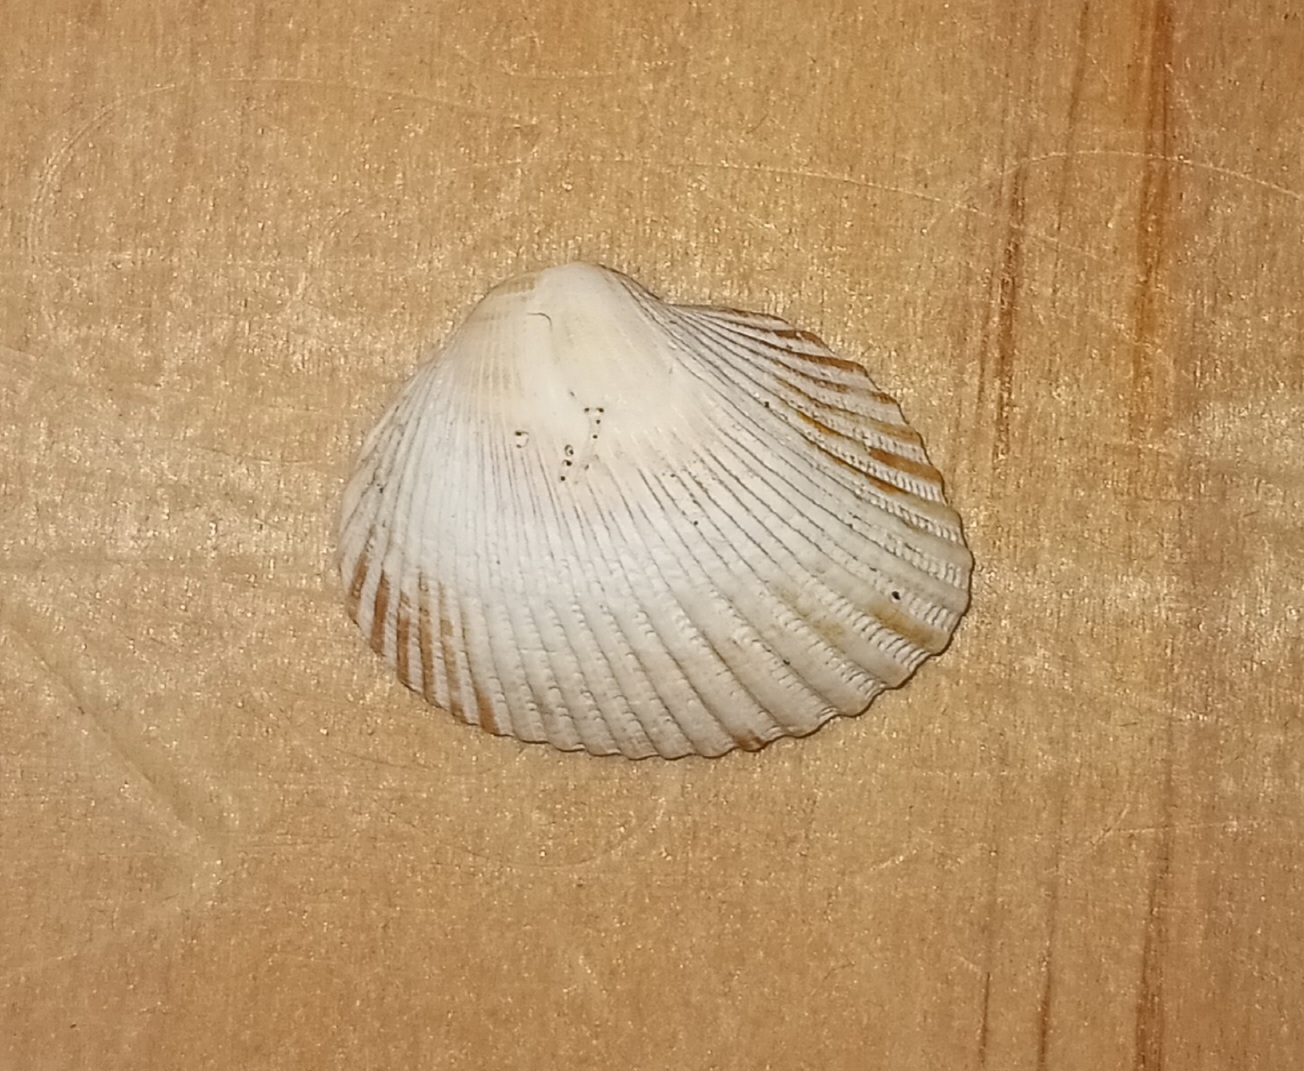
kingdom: Animalia
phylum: Mollusca
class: Bivalvia
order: Arcida
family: Arcidae
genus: Lunarca
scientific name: Lunarca ovalis
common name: Blood ark
